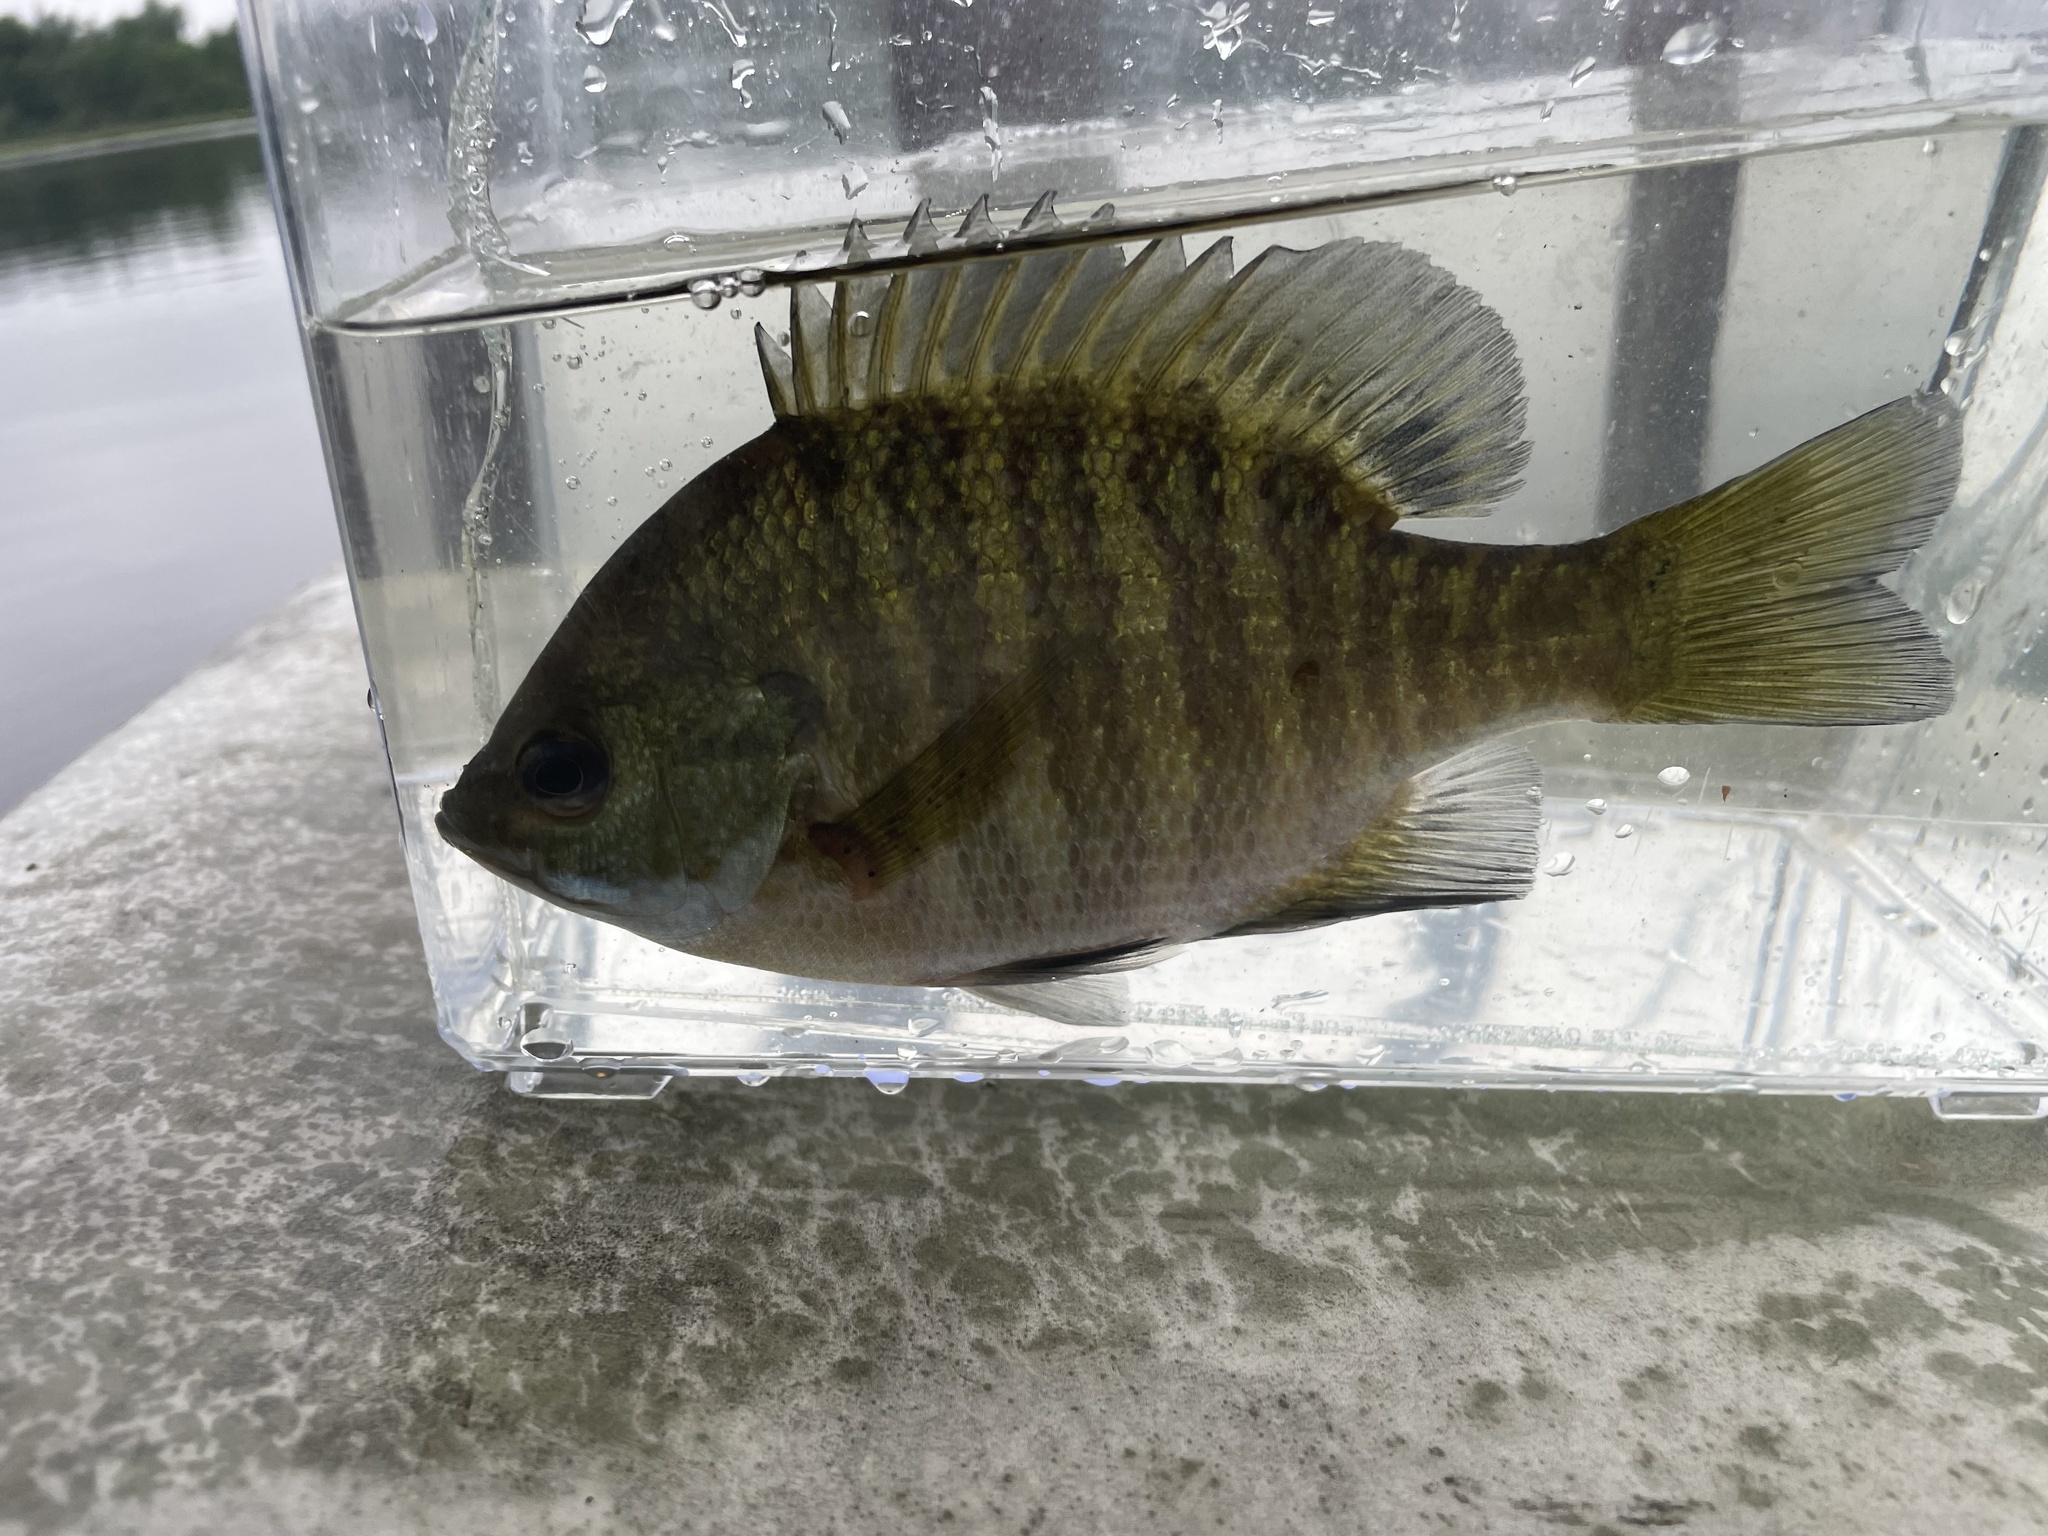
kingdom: Animalia
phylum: Chordata
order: Perciformes
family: Centrarchidae
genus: Lepomis
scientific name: Lepomis macrochirus
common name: Bluegill
